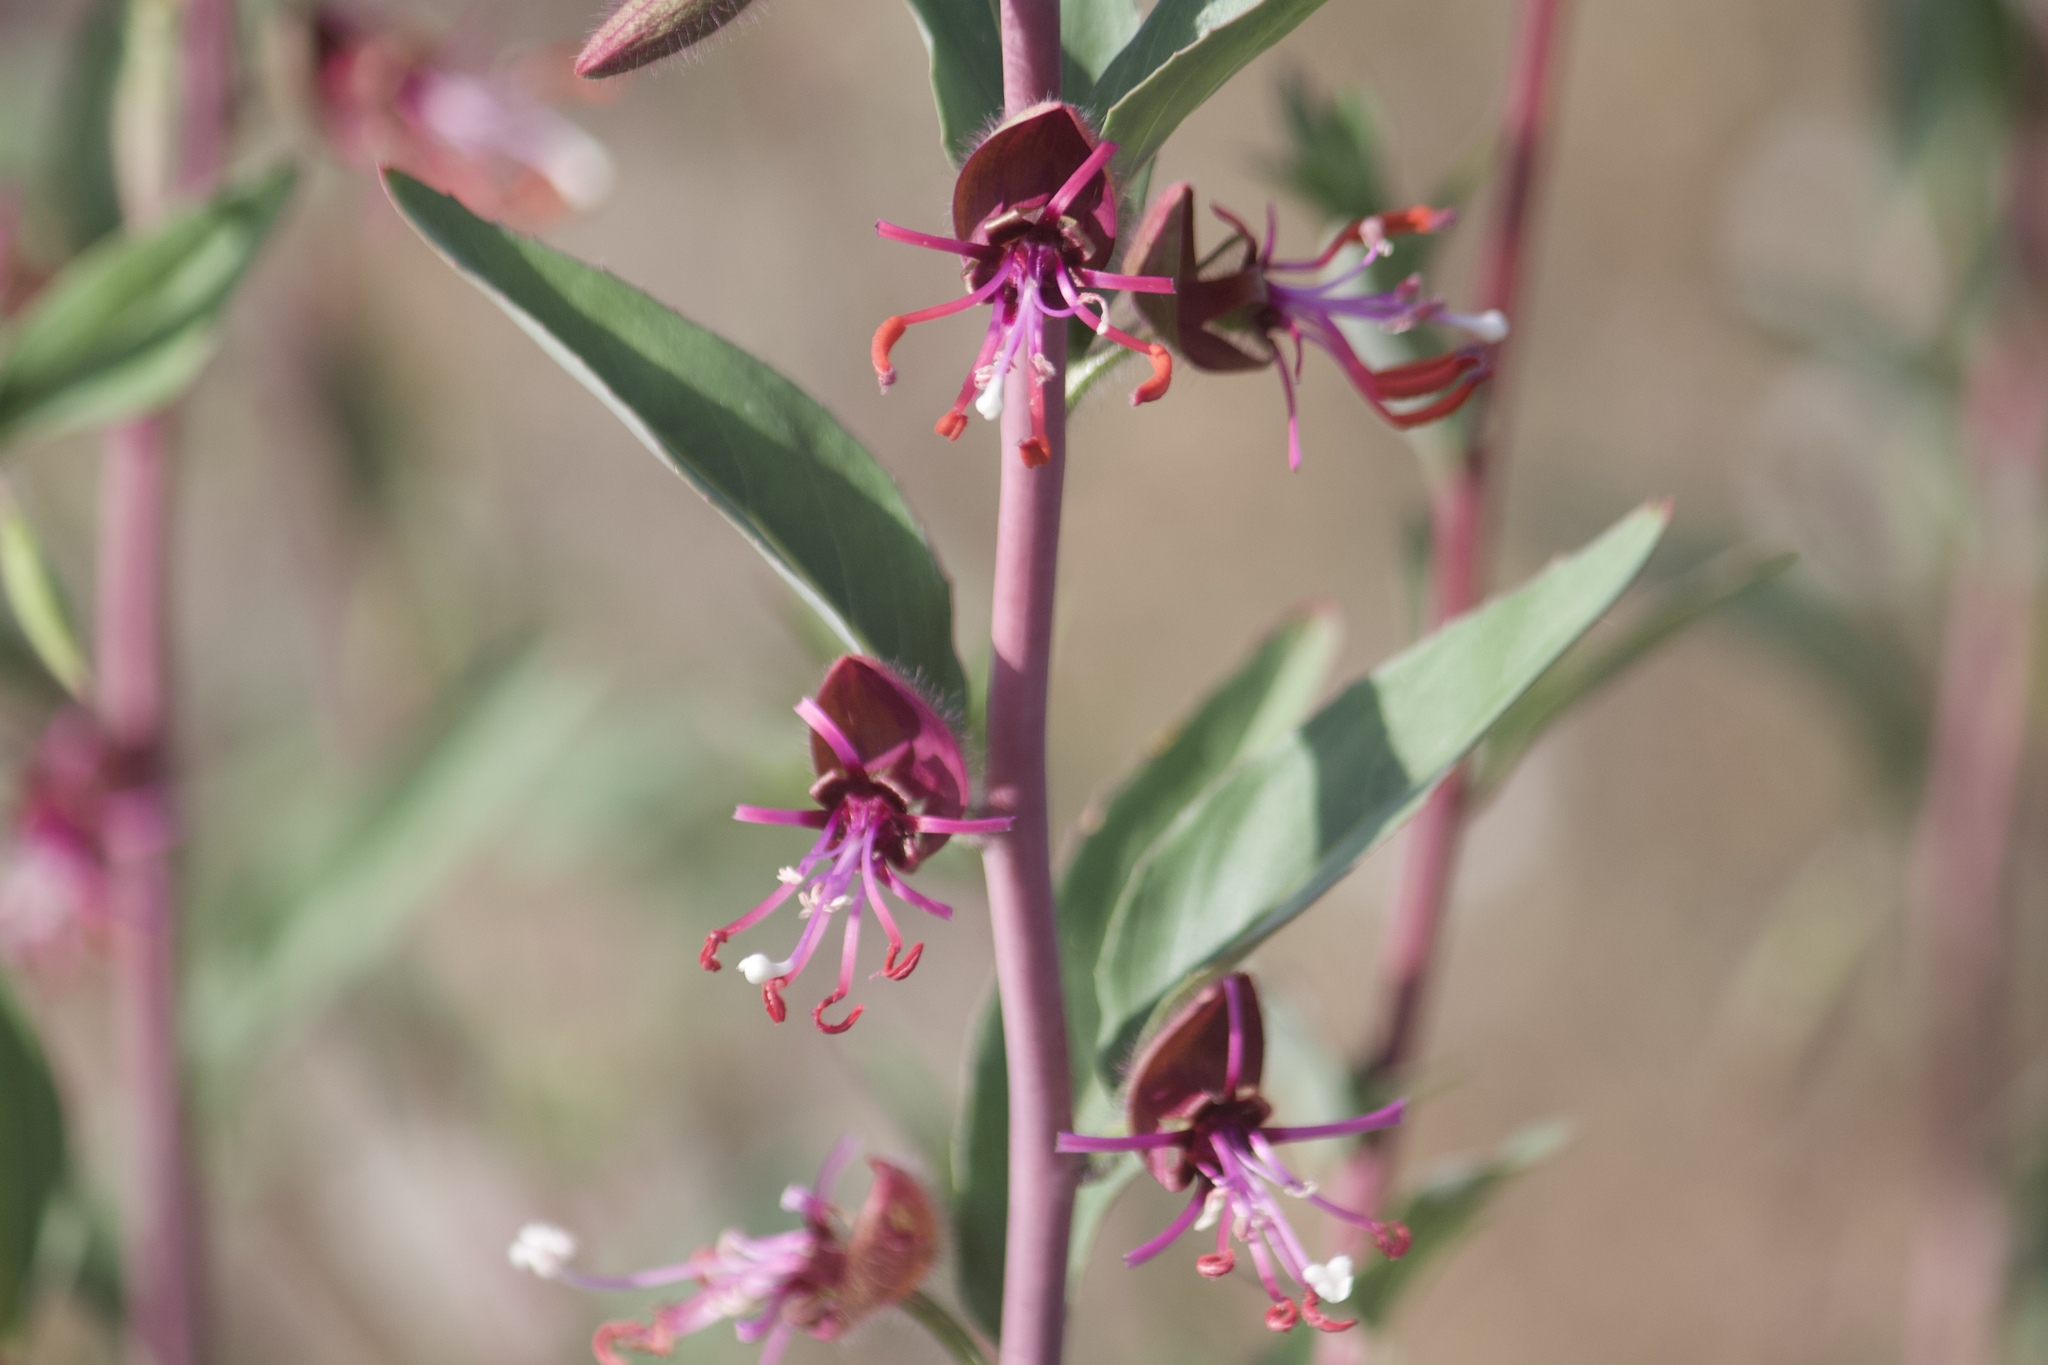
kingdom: Plantae
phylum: Tracheophyta
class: Magnoliopsida
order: Myrtales
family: Onagraceae
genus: Clarkia
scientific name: Clarkia unguiculata
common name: Clarkia
